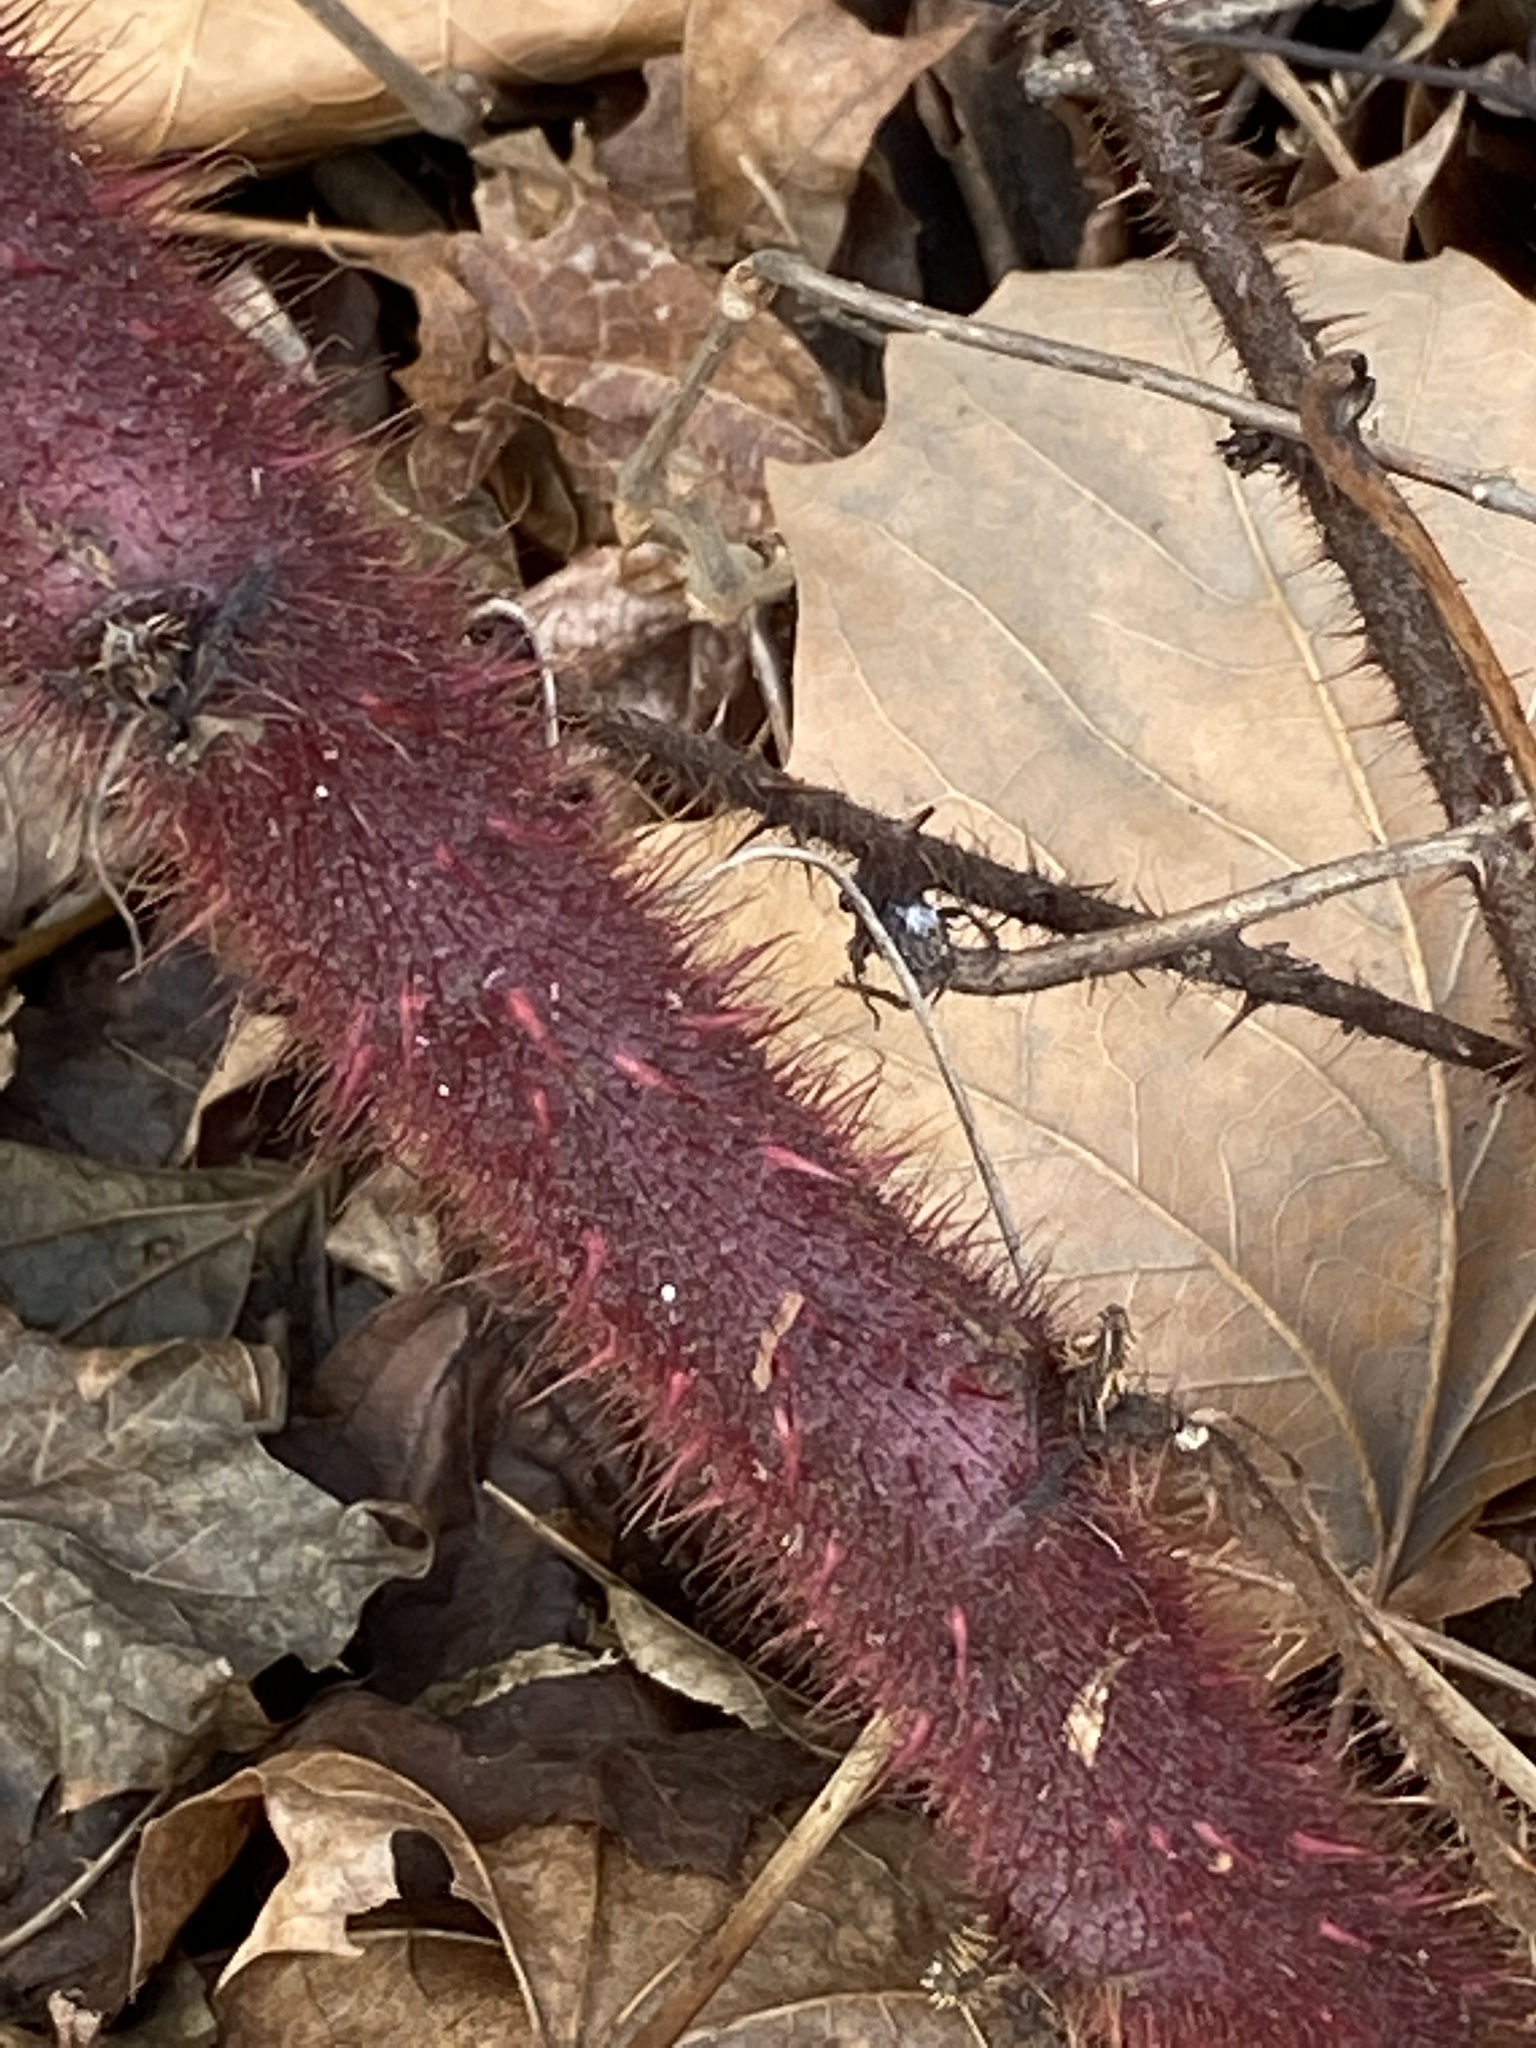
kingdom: Plantae
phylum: Tracheophyta
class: Magnoliopsida
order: Rosales
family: Rosaceae
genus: Rubus
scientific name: Rubus phoenicolasius
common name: Japanese wineberry
